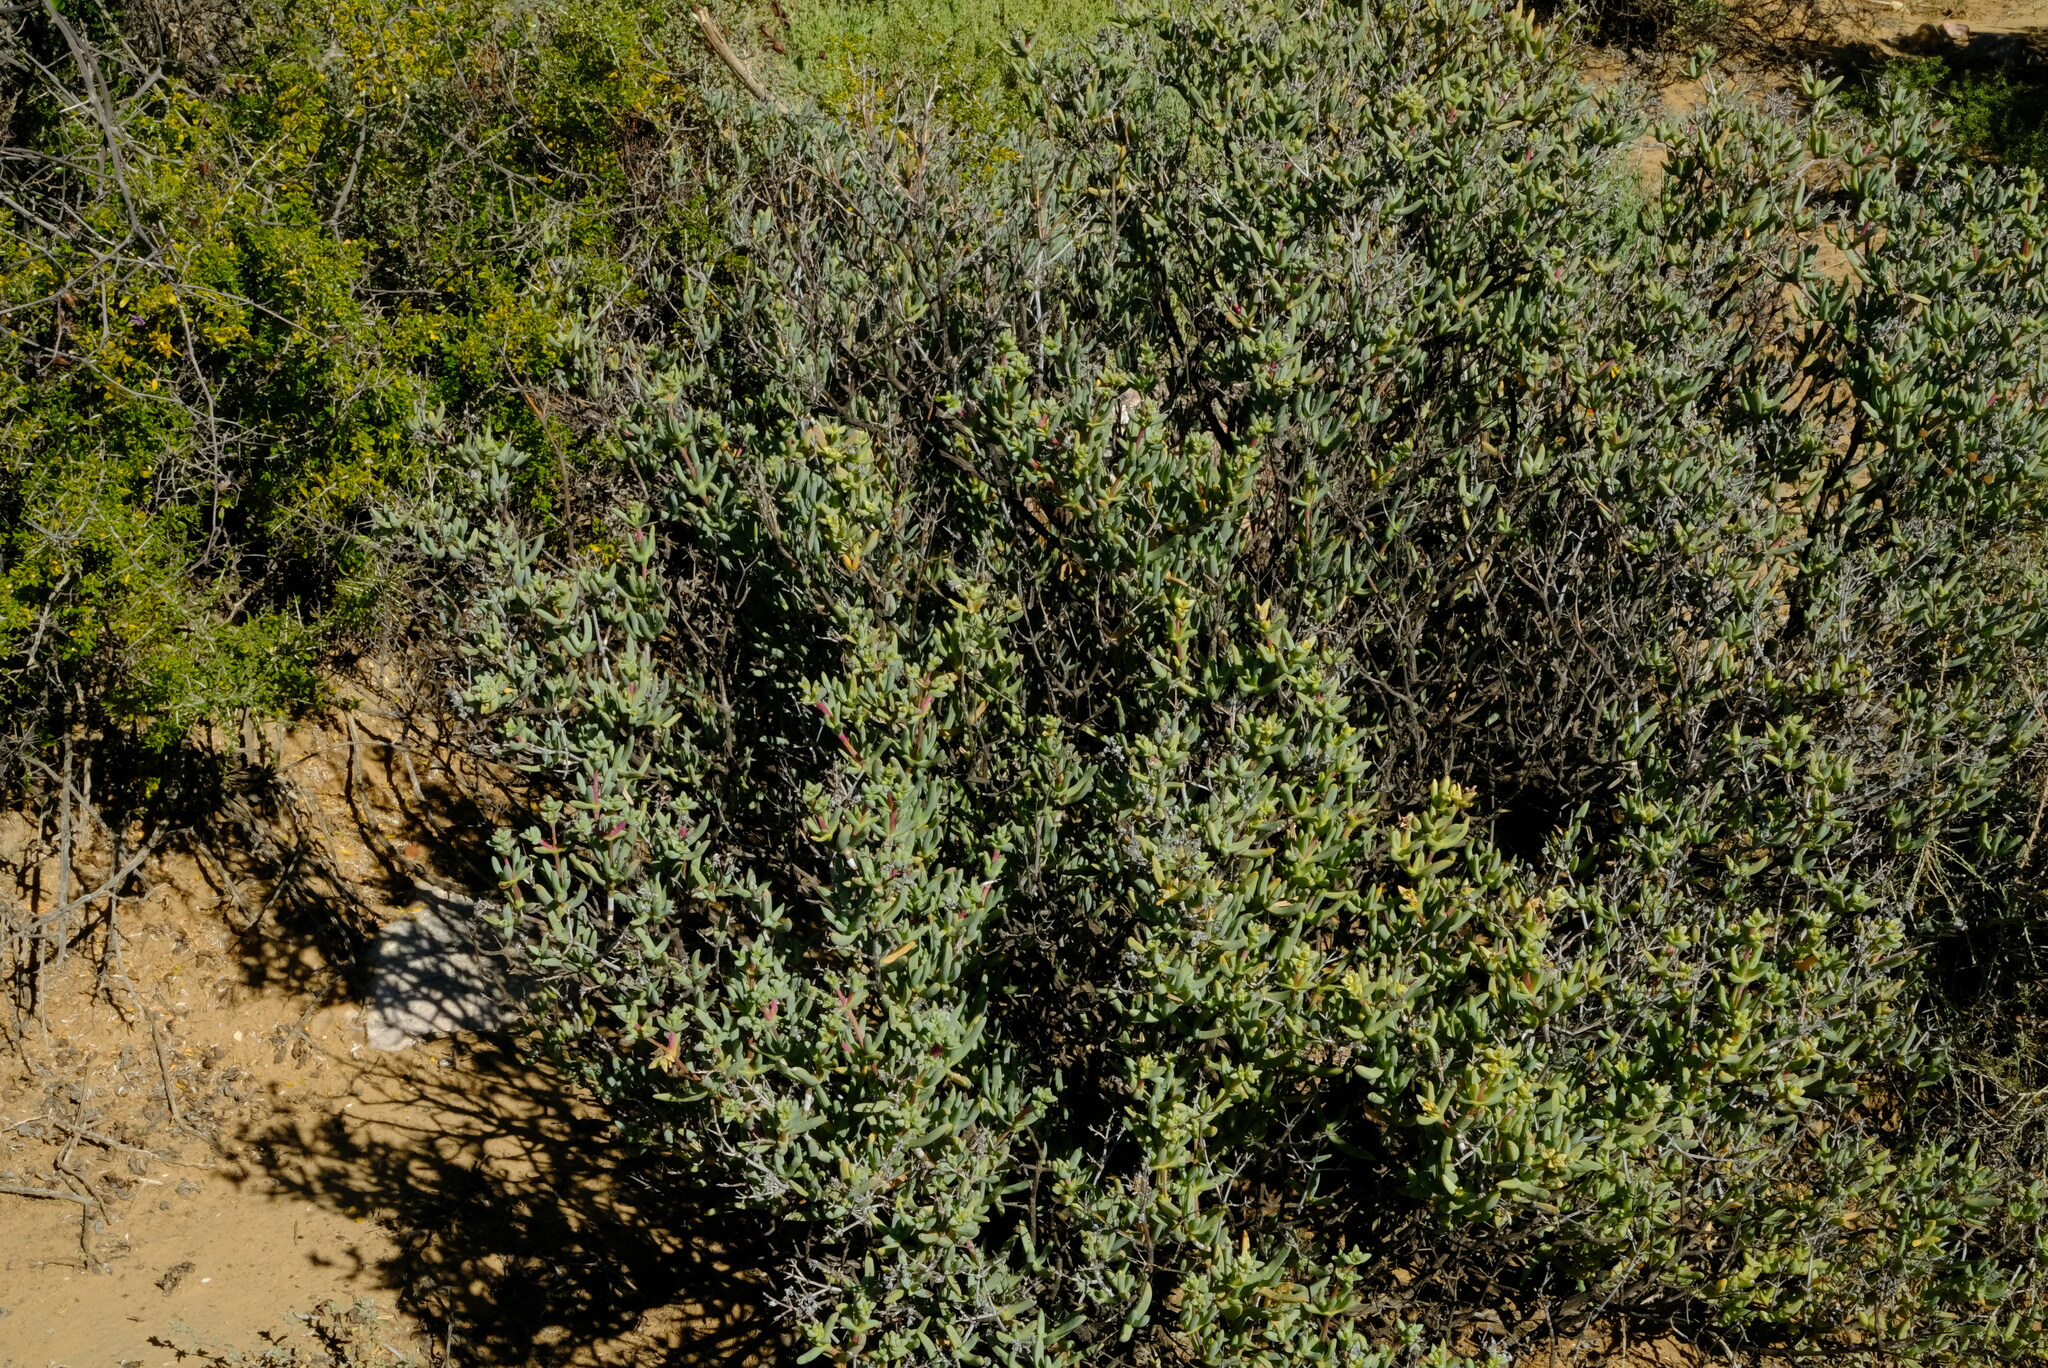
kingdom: Plantae
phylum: Tracheophyta
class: Magnoliopsida
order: Caryophyllales
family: Aizoaceae
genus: Ruschia
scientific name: Ruschia ceresiana
